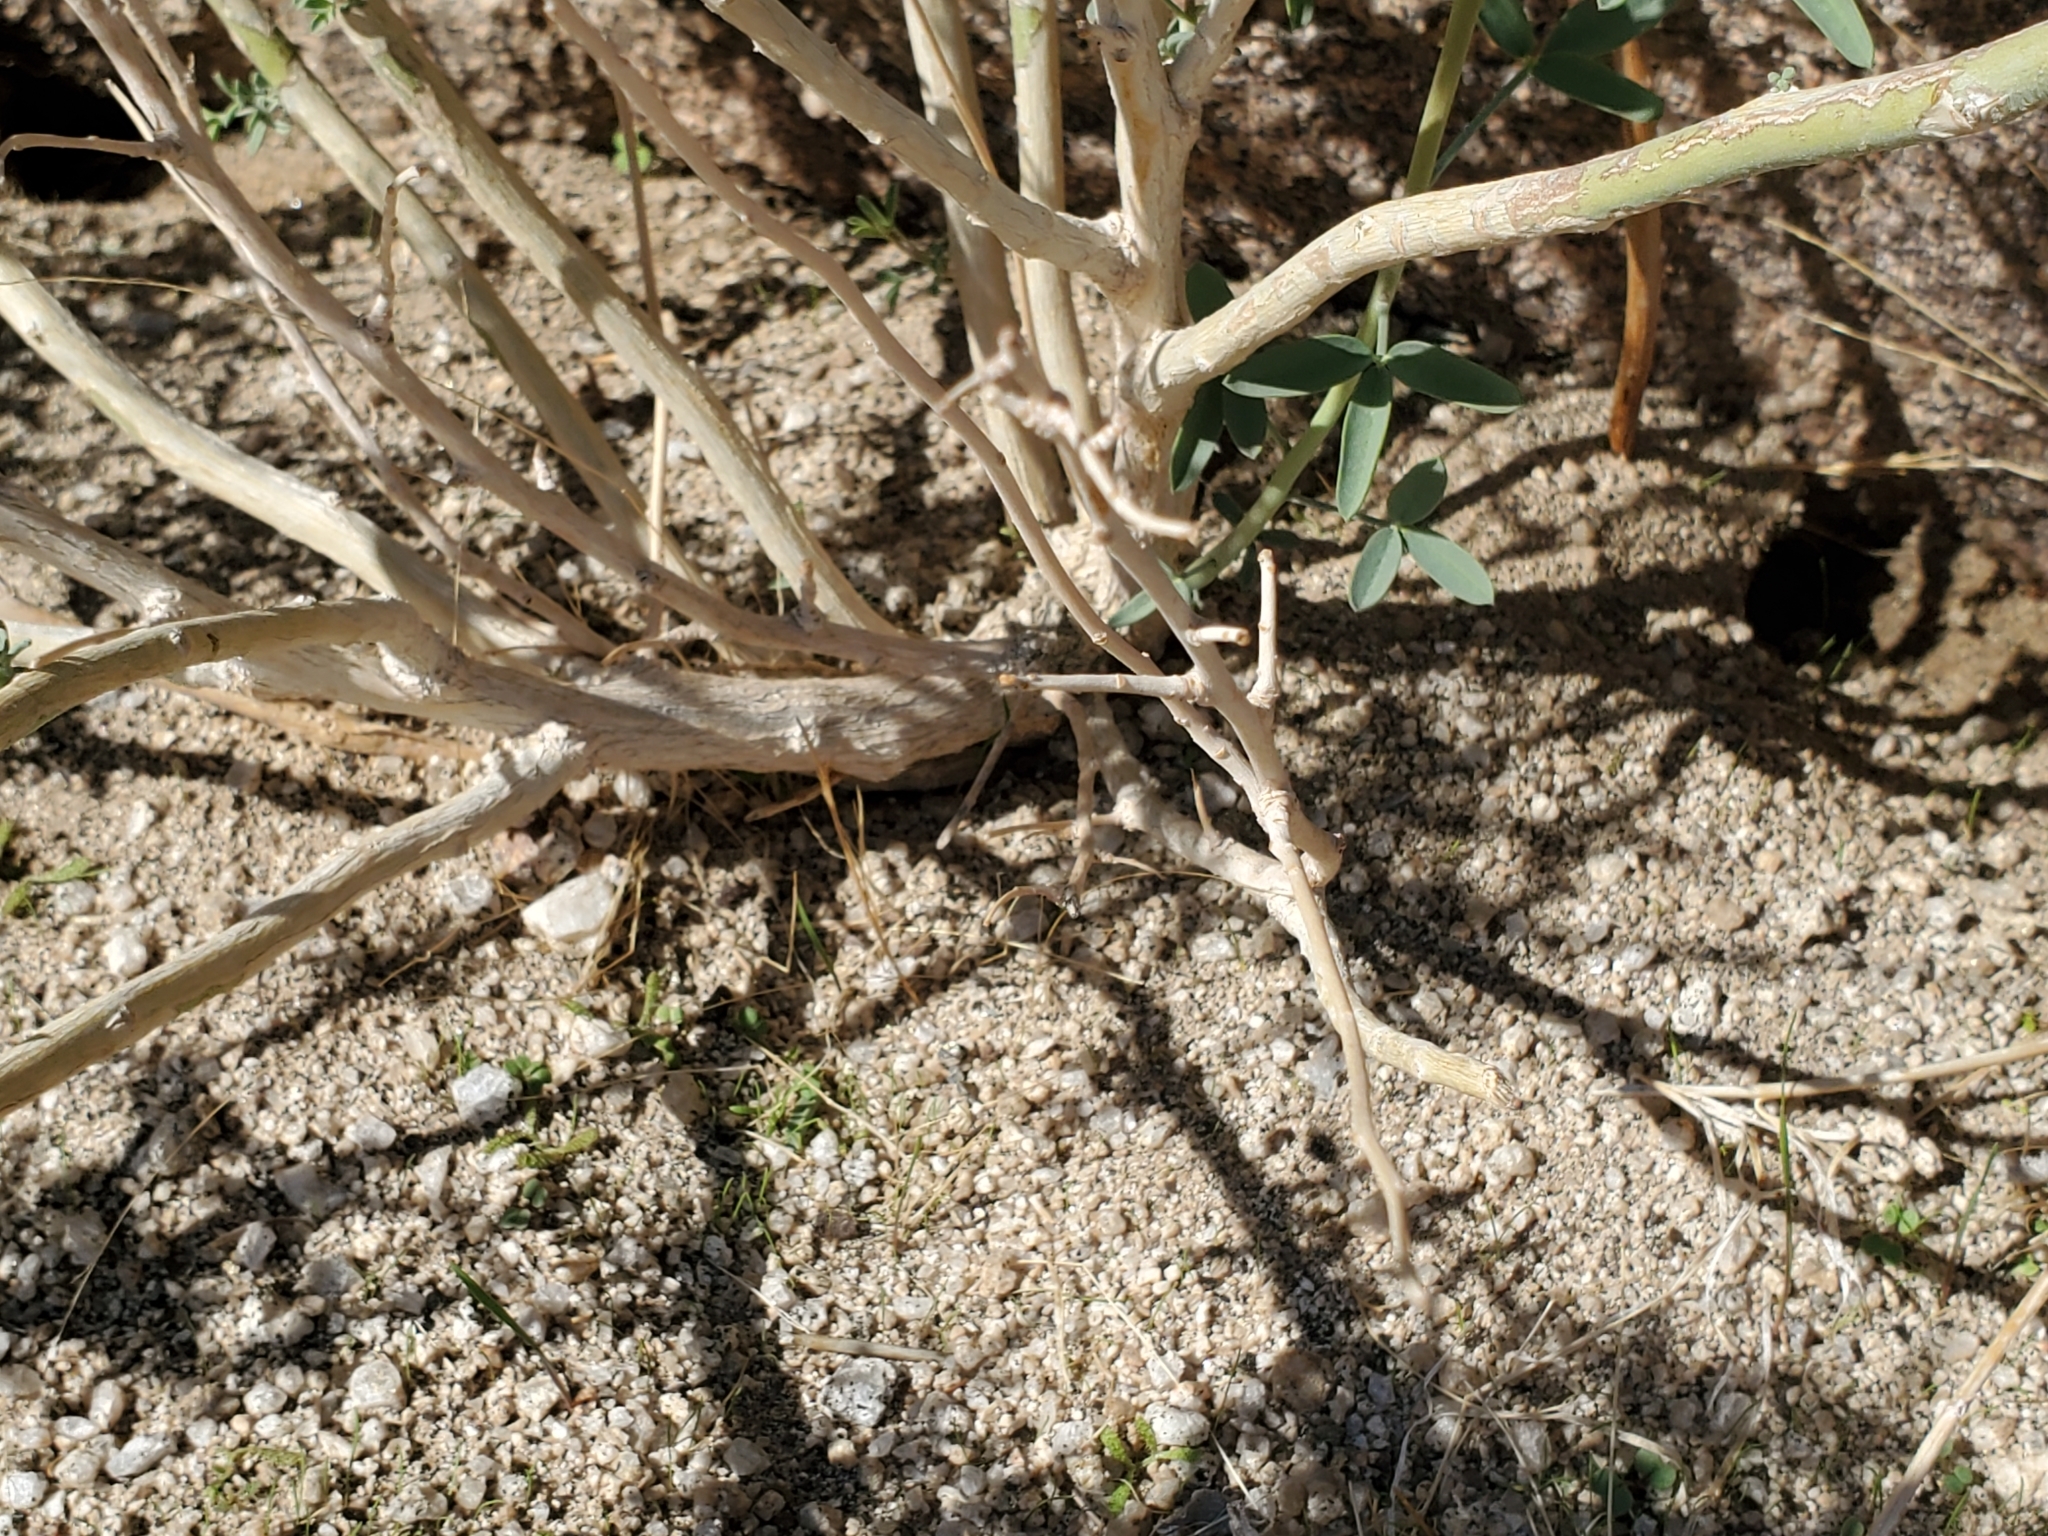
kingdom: Plantae
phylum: Tracheophyta
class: Magnoliopsida
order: Brassicales
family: Cleomaceae
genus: Cleomella
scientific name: Cleomella arborea
